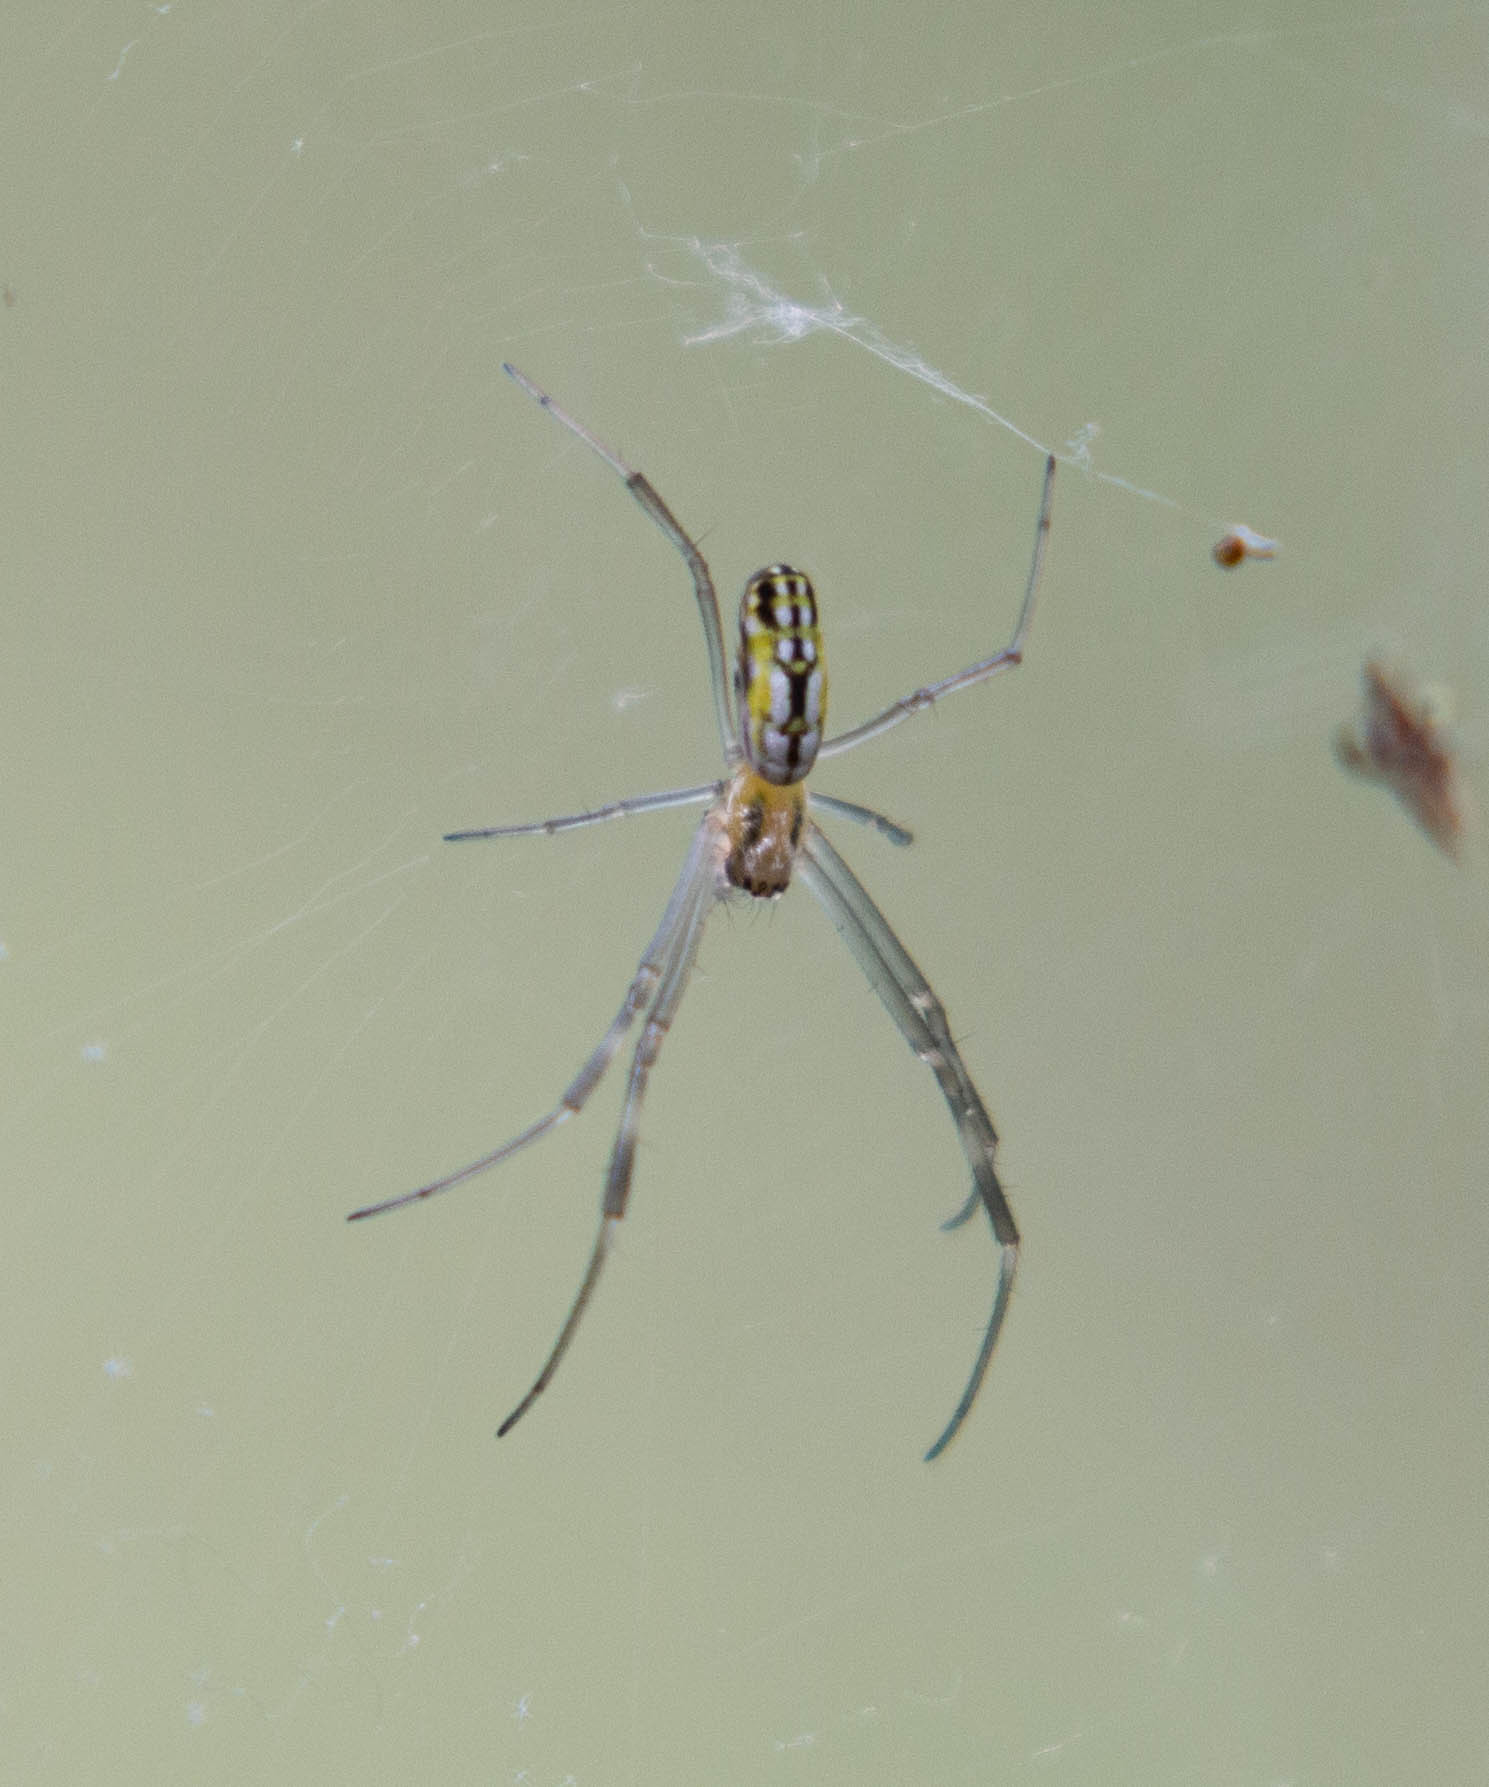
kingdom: Animalia
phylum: Arthropoda
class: Arachnida
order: Araneae
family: Araneidae
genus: Trichonephila
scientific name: Trichonephila clavipes
